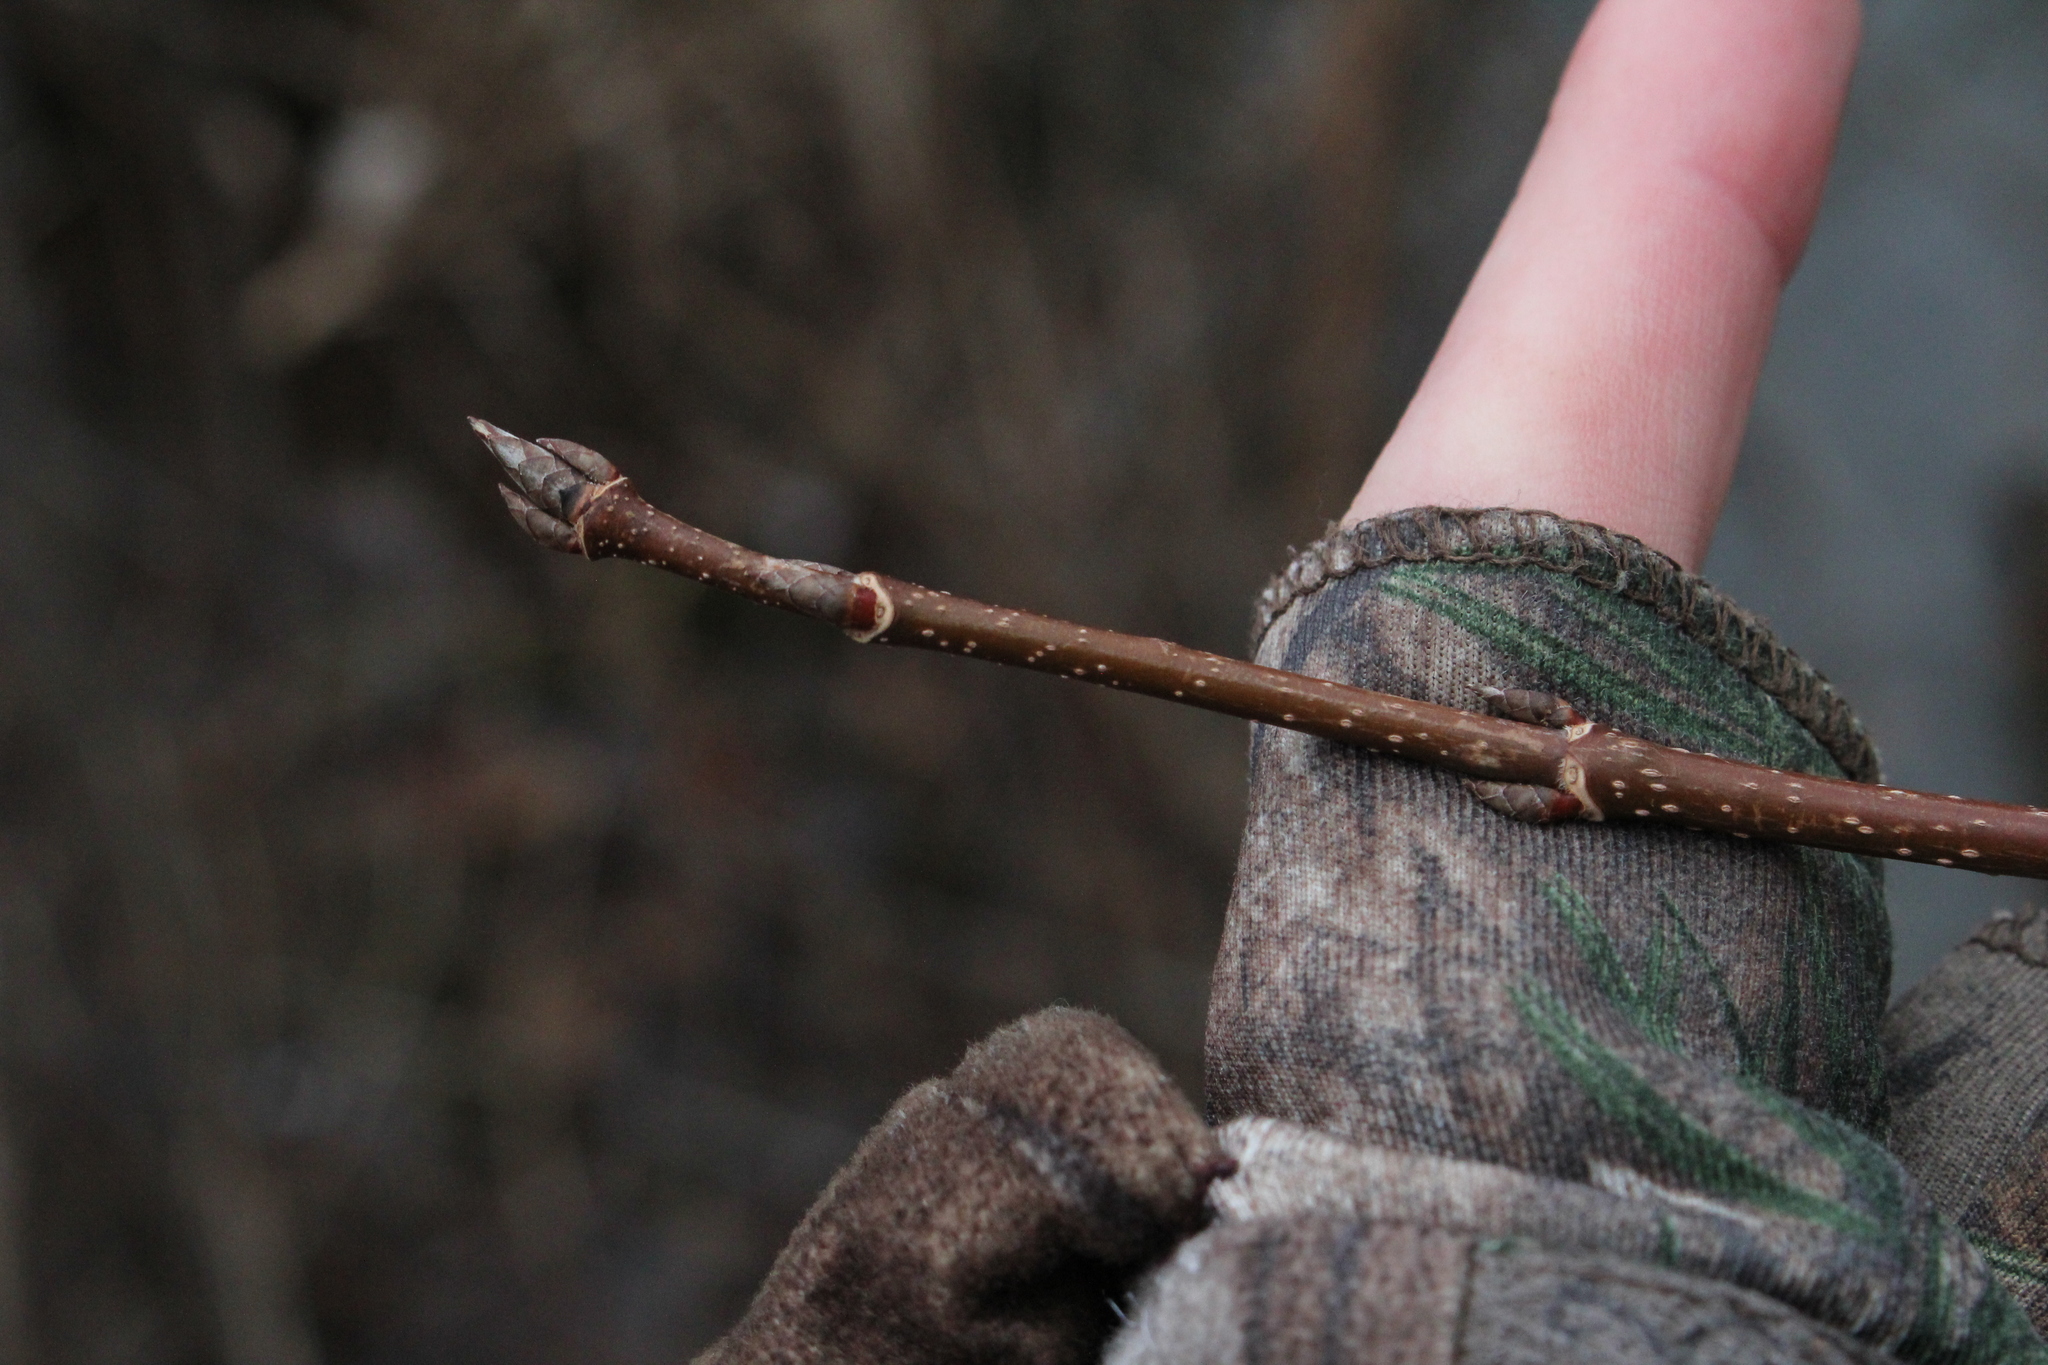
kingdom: Plantae
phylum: Tracheophyta
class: Magnoliopsida
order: Sapindales
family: Sapindaceae
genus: Acer
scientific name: Acer saccharum
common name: Sugar maple
